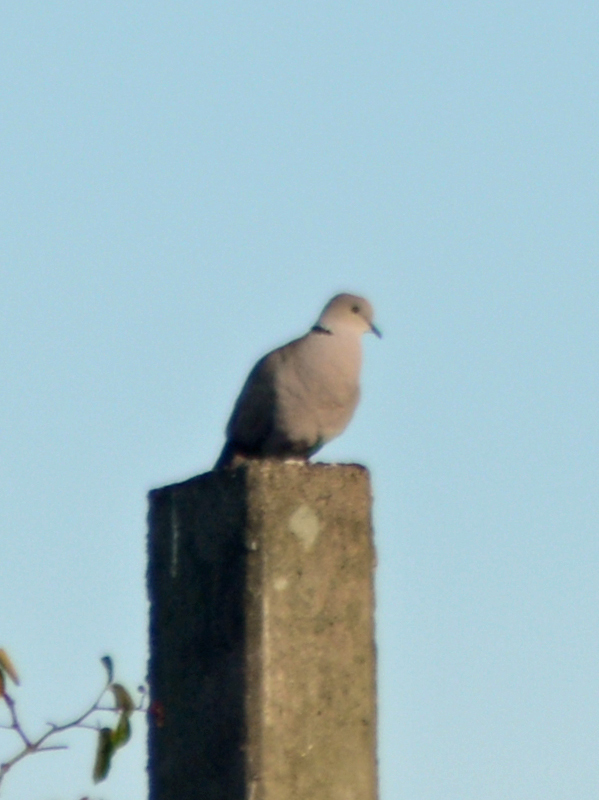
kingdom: Animalia
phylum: Chordata
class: Aves
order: Columbiformes
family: Columbidae
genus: Streptopelia
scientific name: Streptopelia decaocto
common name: Eurasian collared dove
